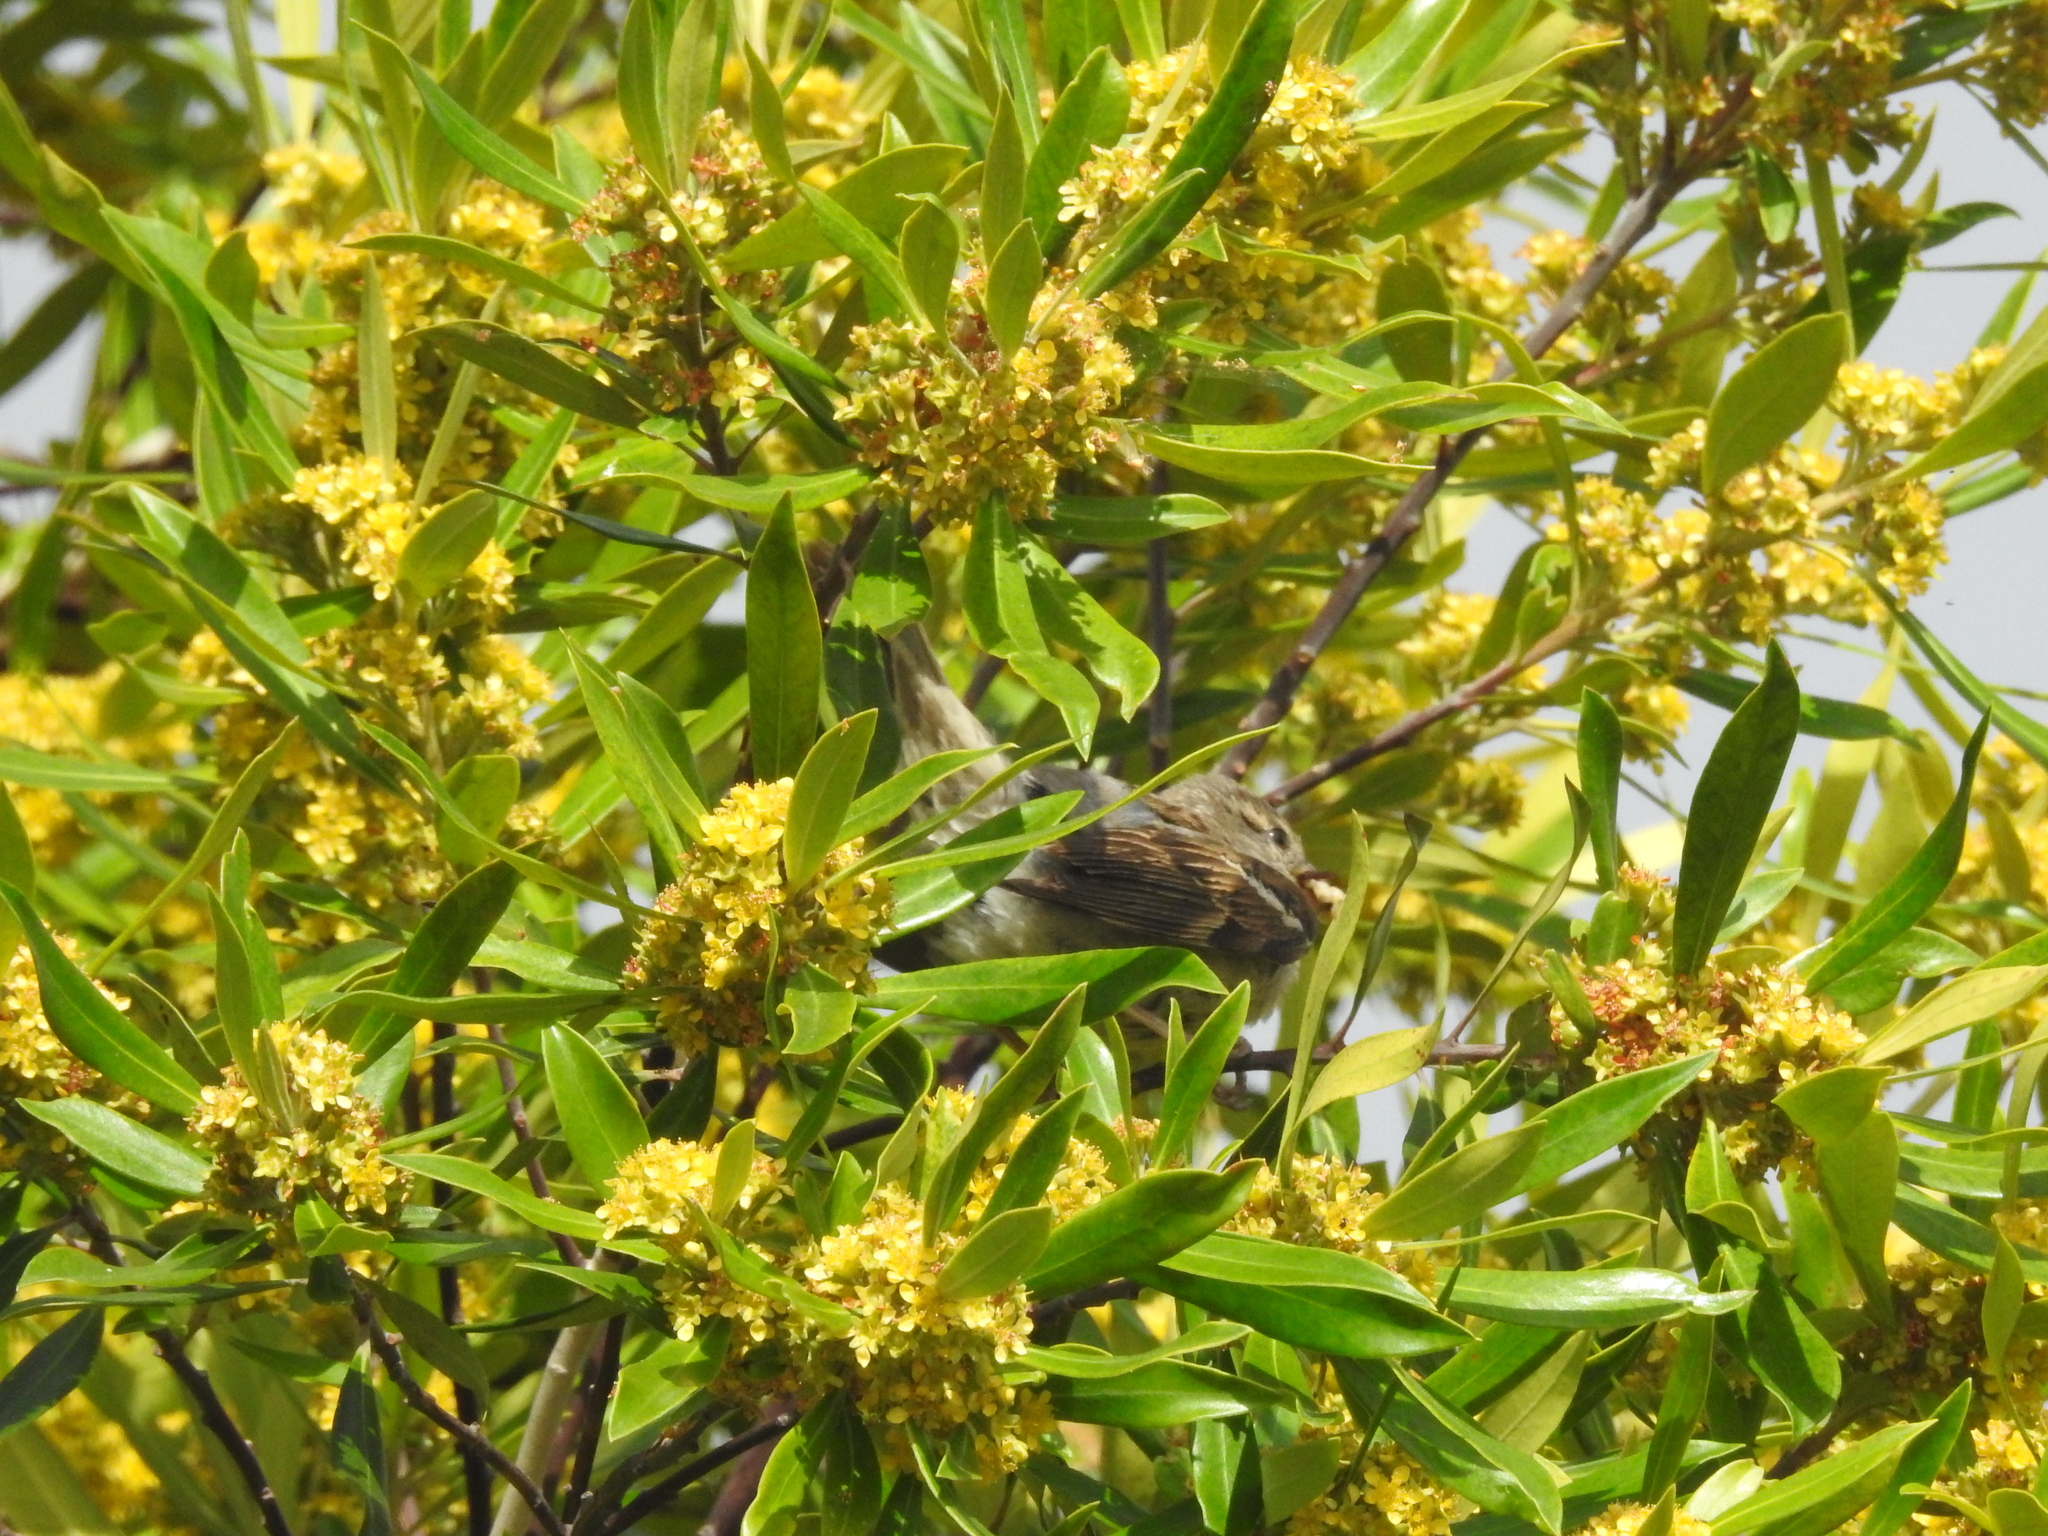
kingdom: Animalia
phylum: Chordata
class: Aves
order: Passeriformes
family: Passeridae
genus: Passer
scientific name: Passer domesticus
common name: House sparrow
